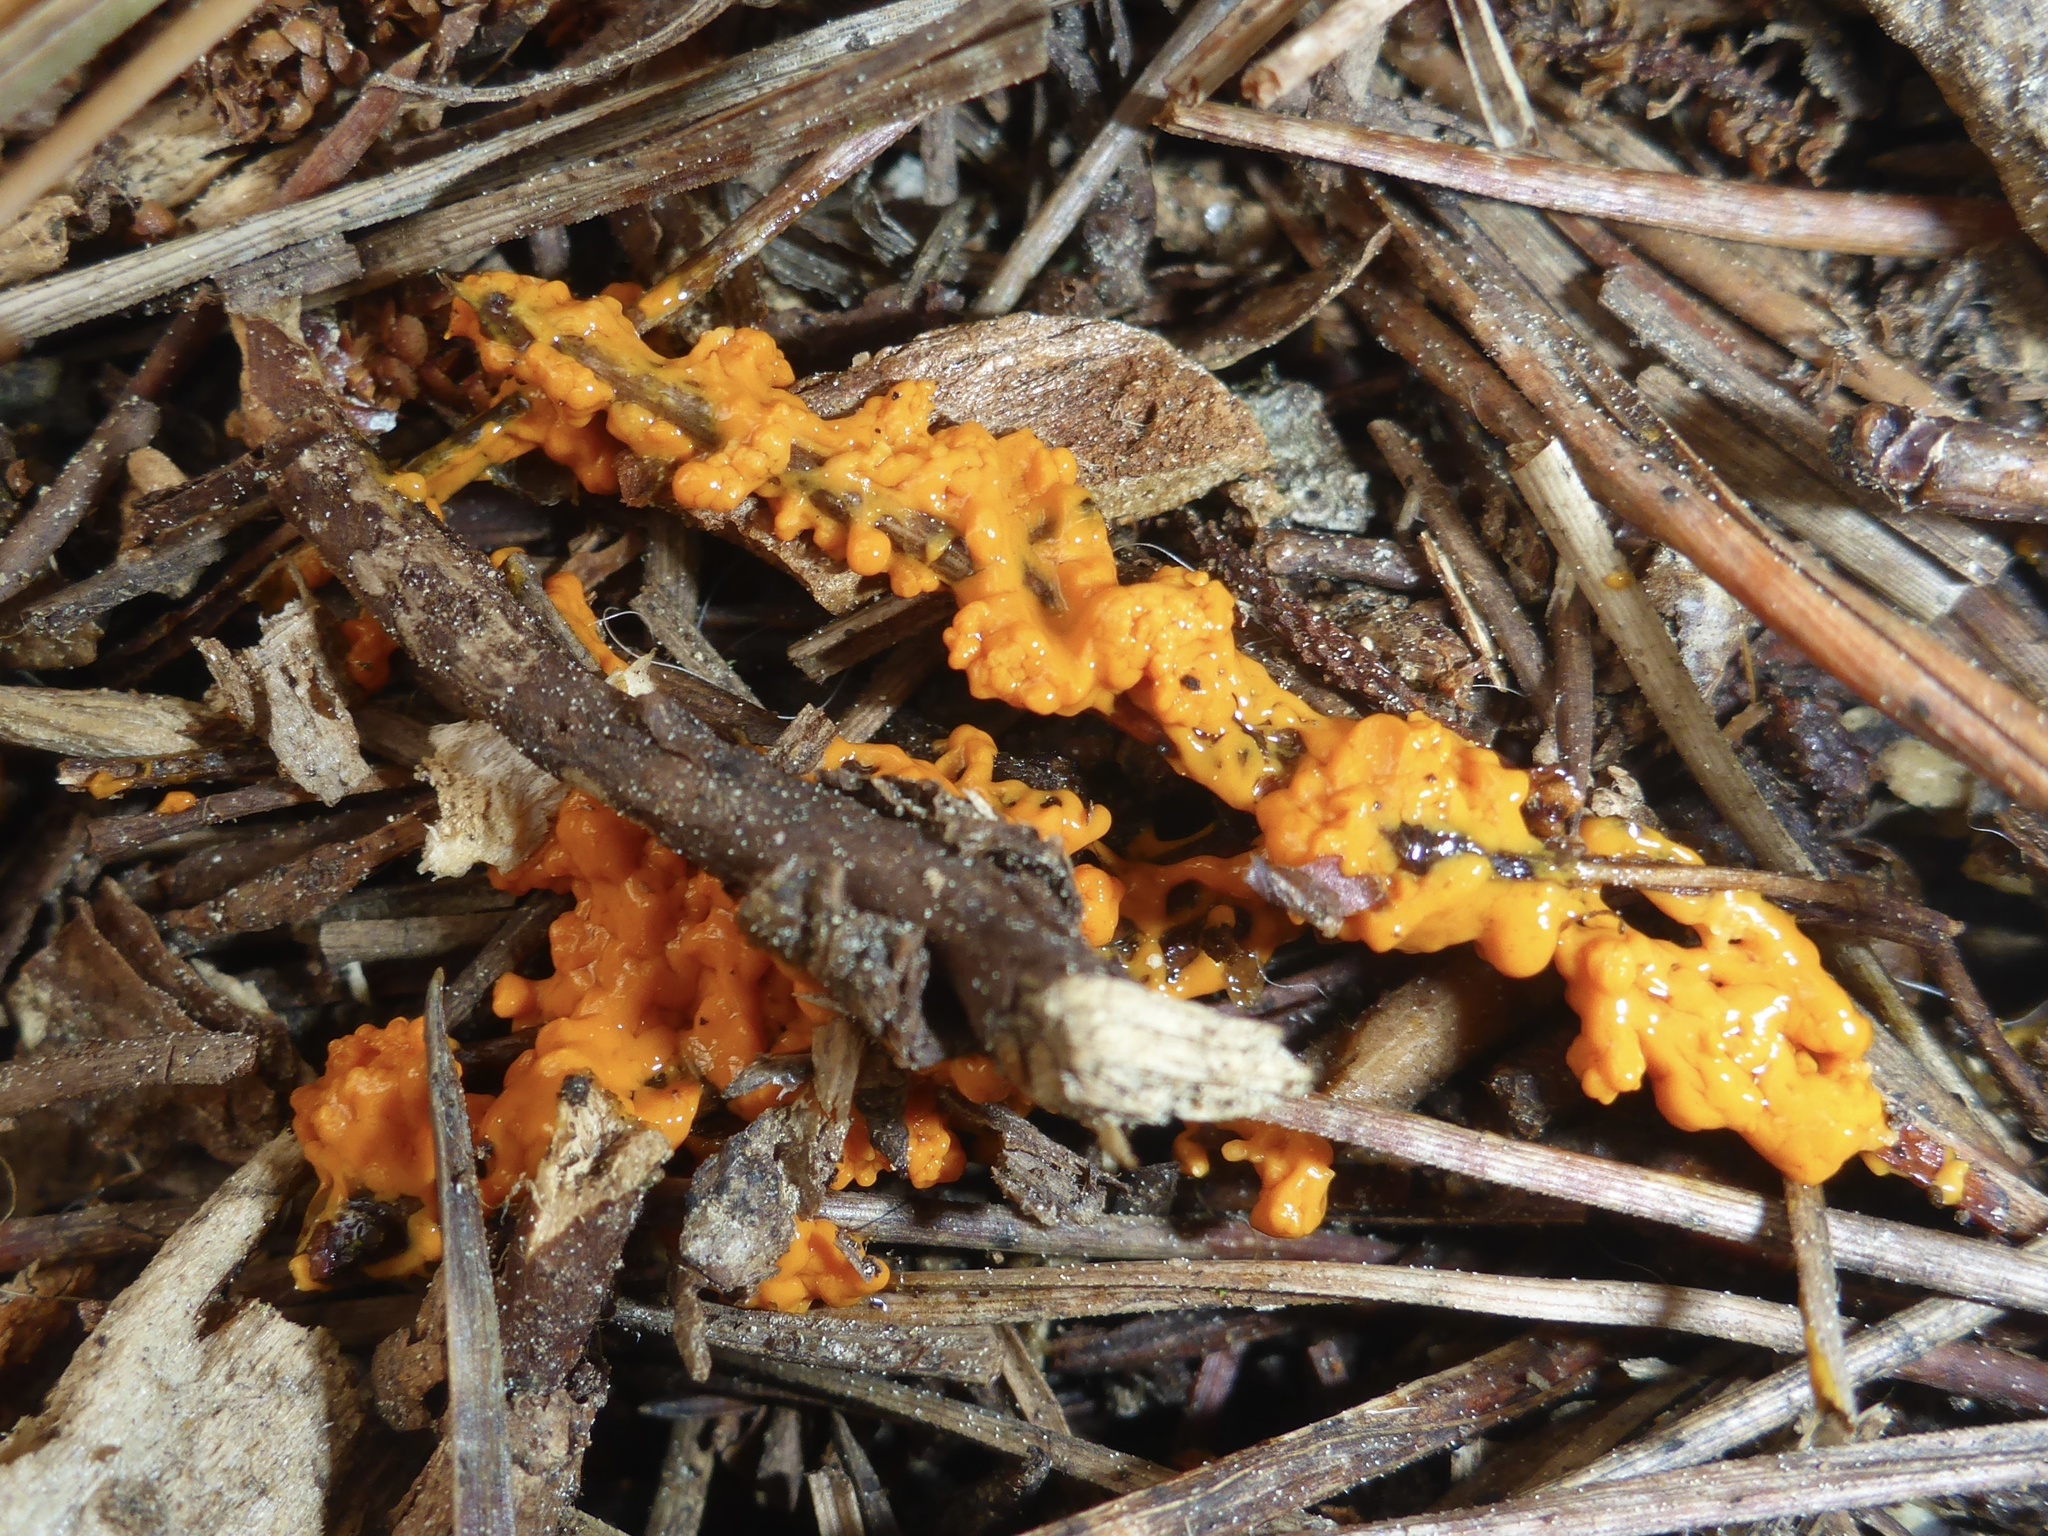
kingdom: Protozoa
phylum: Mycetozoa
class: Myxomycetes
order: Physarales
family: Physaraceae
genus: Leocarpus
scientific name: Leocarpus fragilis
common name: Insect-egg slime
